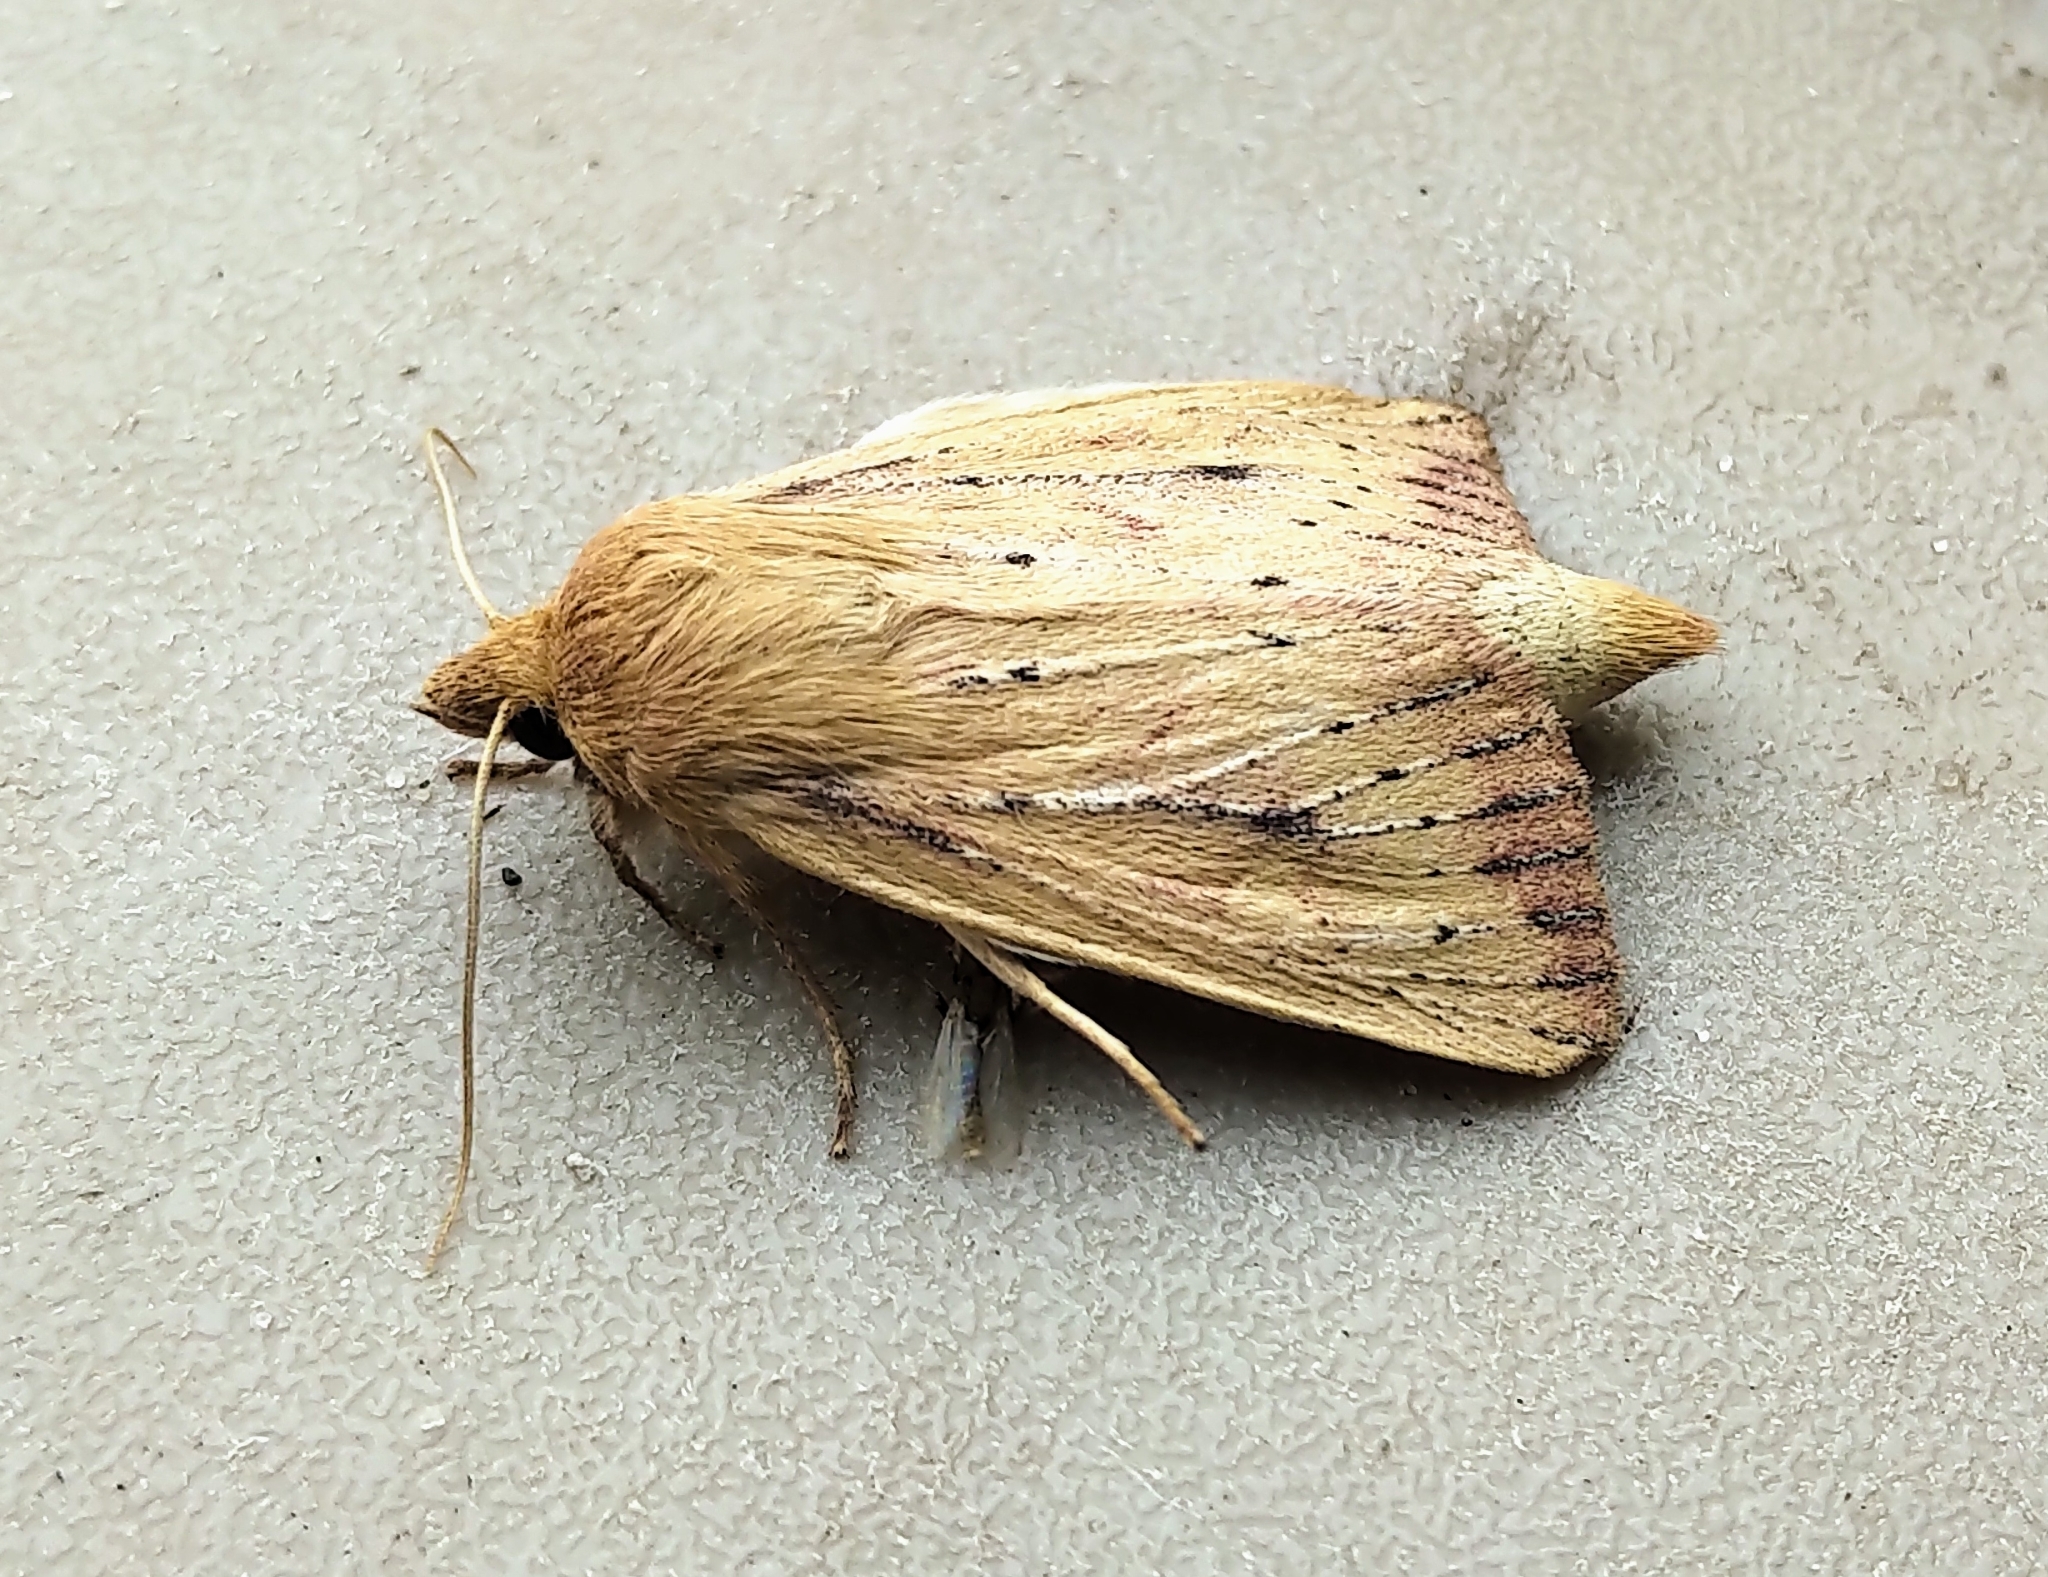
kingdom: Animalia
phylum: Arthropoda
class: Insecta
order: Lepidoptera
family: Noctuidae
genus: Globia
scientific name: Globia subflava
